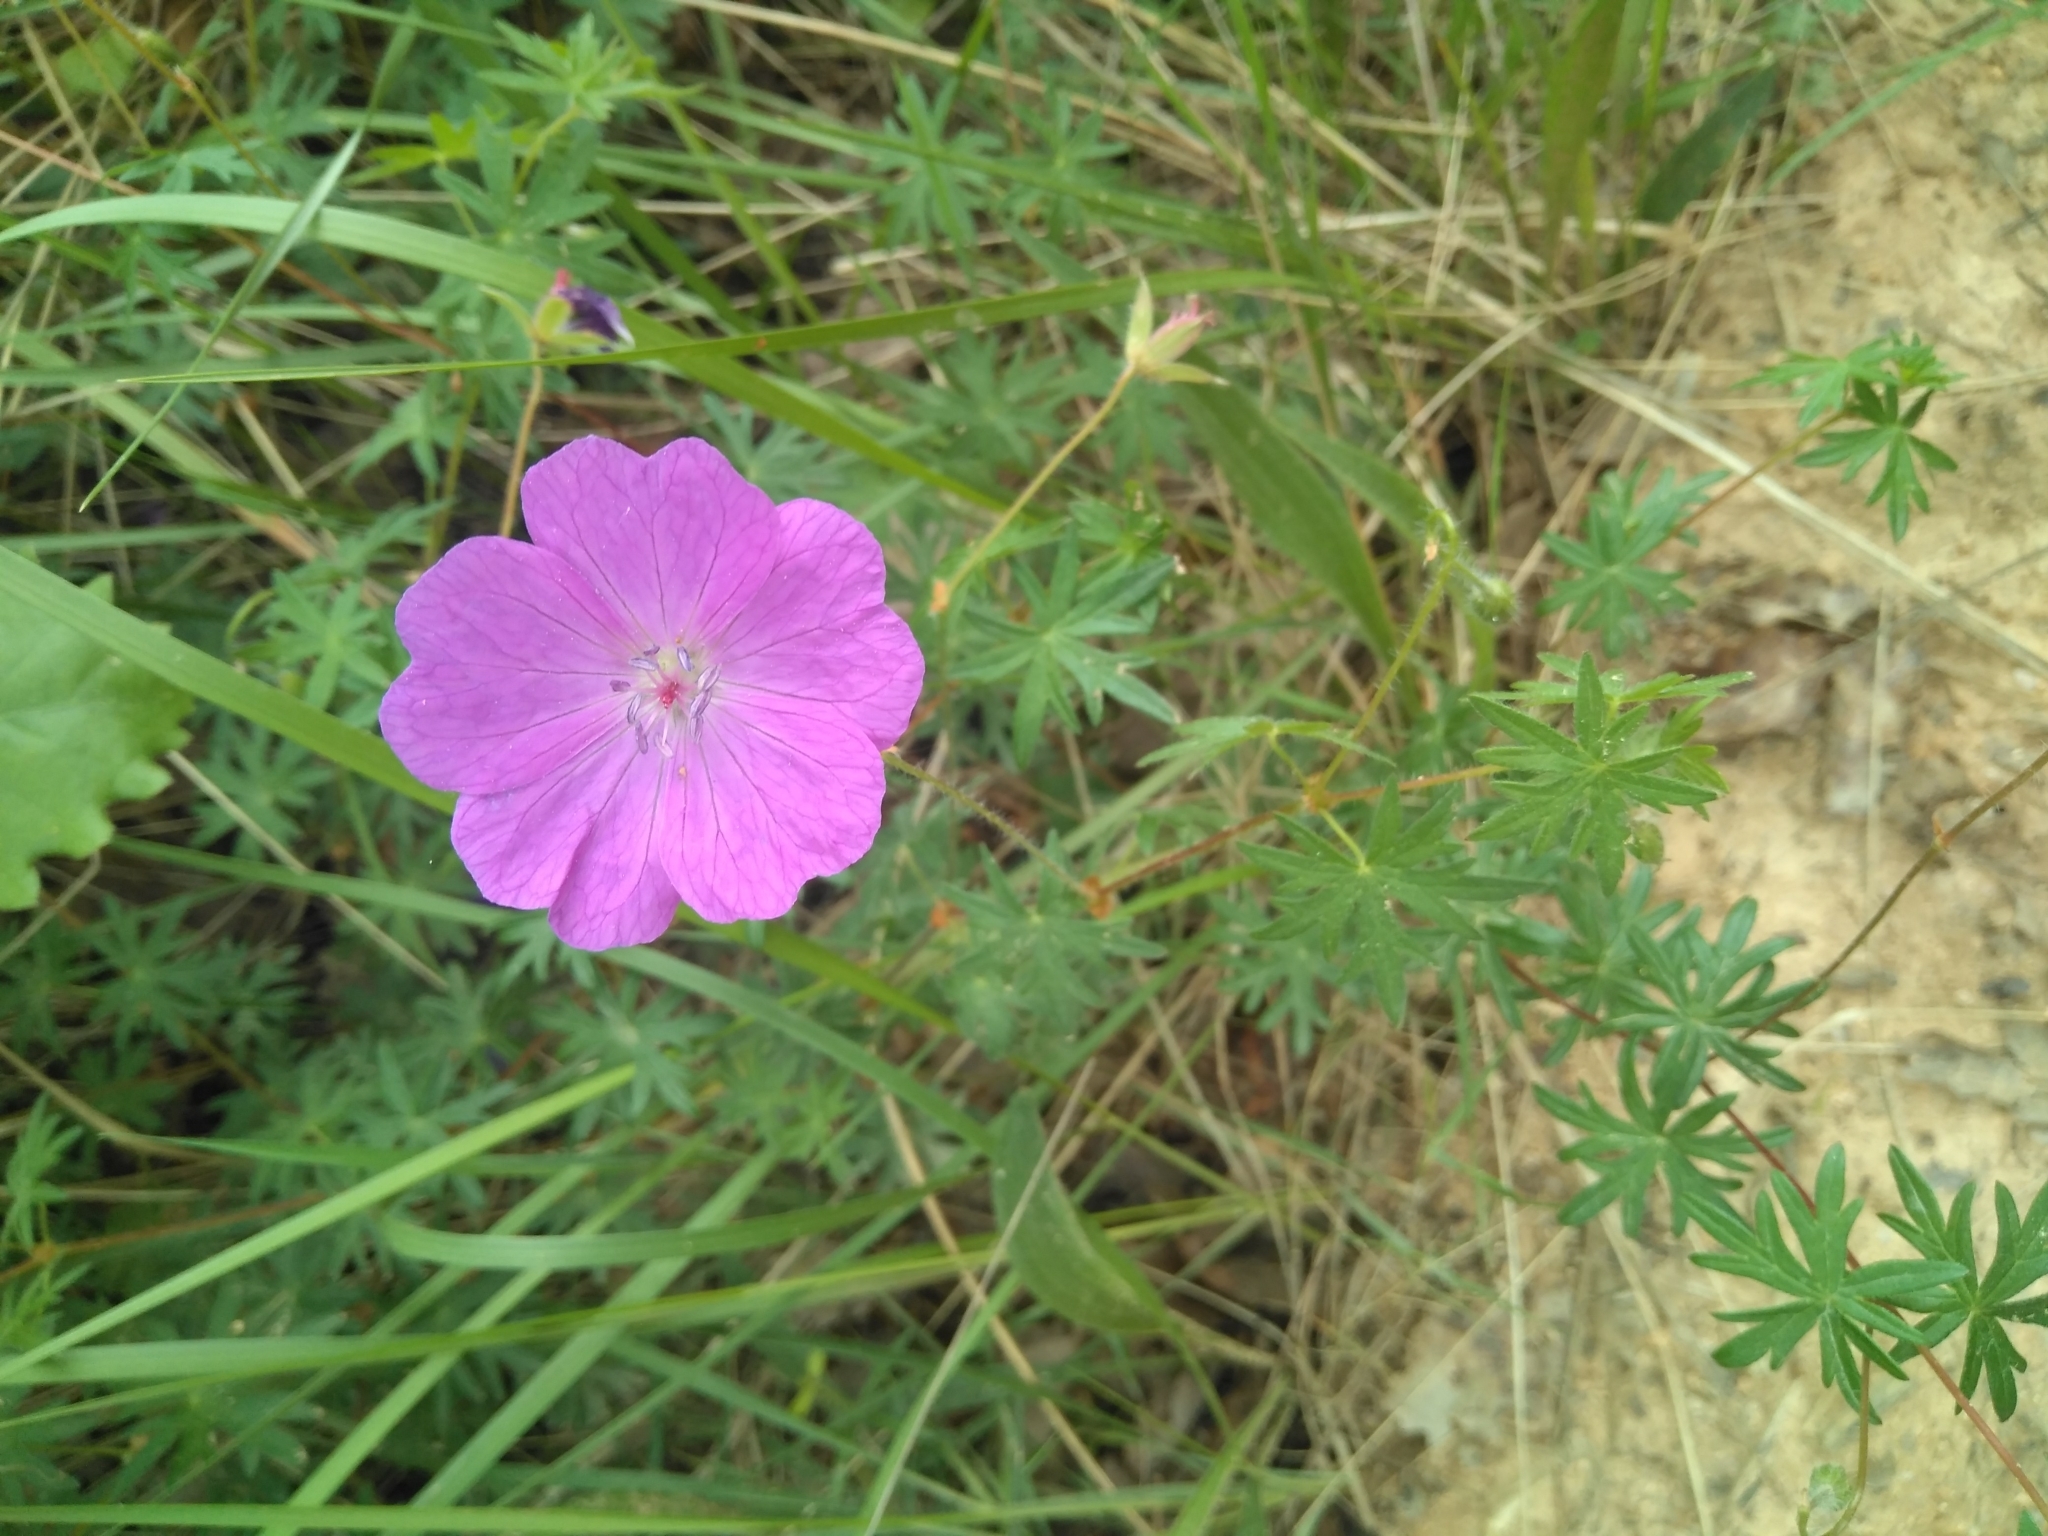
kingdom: Plantae
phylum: Tracheophyta
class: Magnoliopsida
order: Geraniales
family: Geraniaceae
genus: Geranium
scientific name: Geranium sanguineum
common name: Bloody crane's-bill
